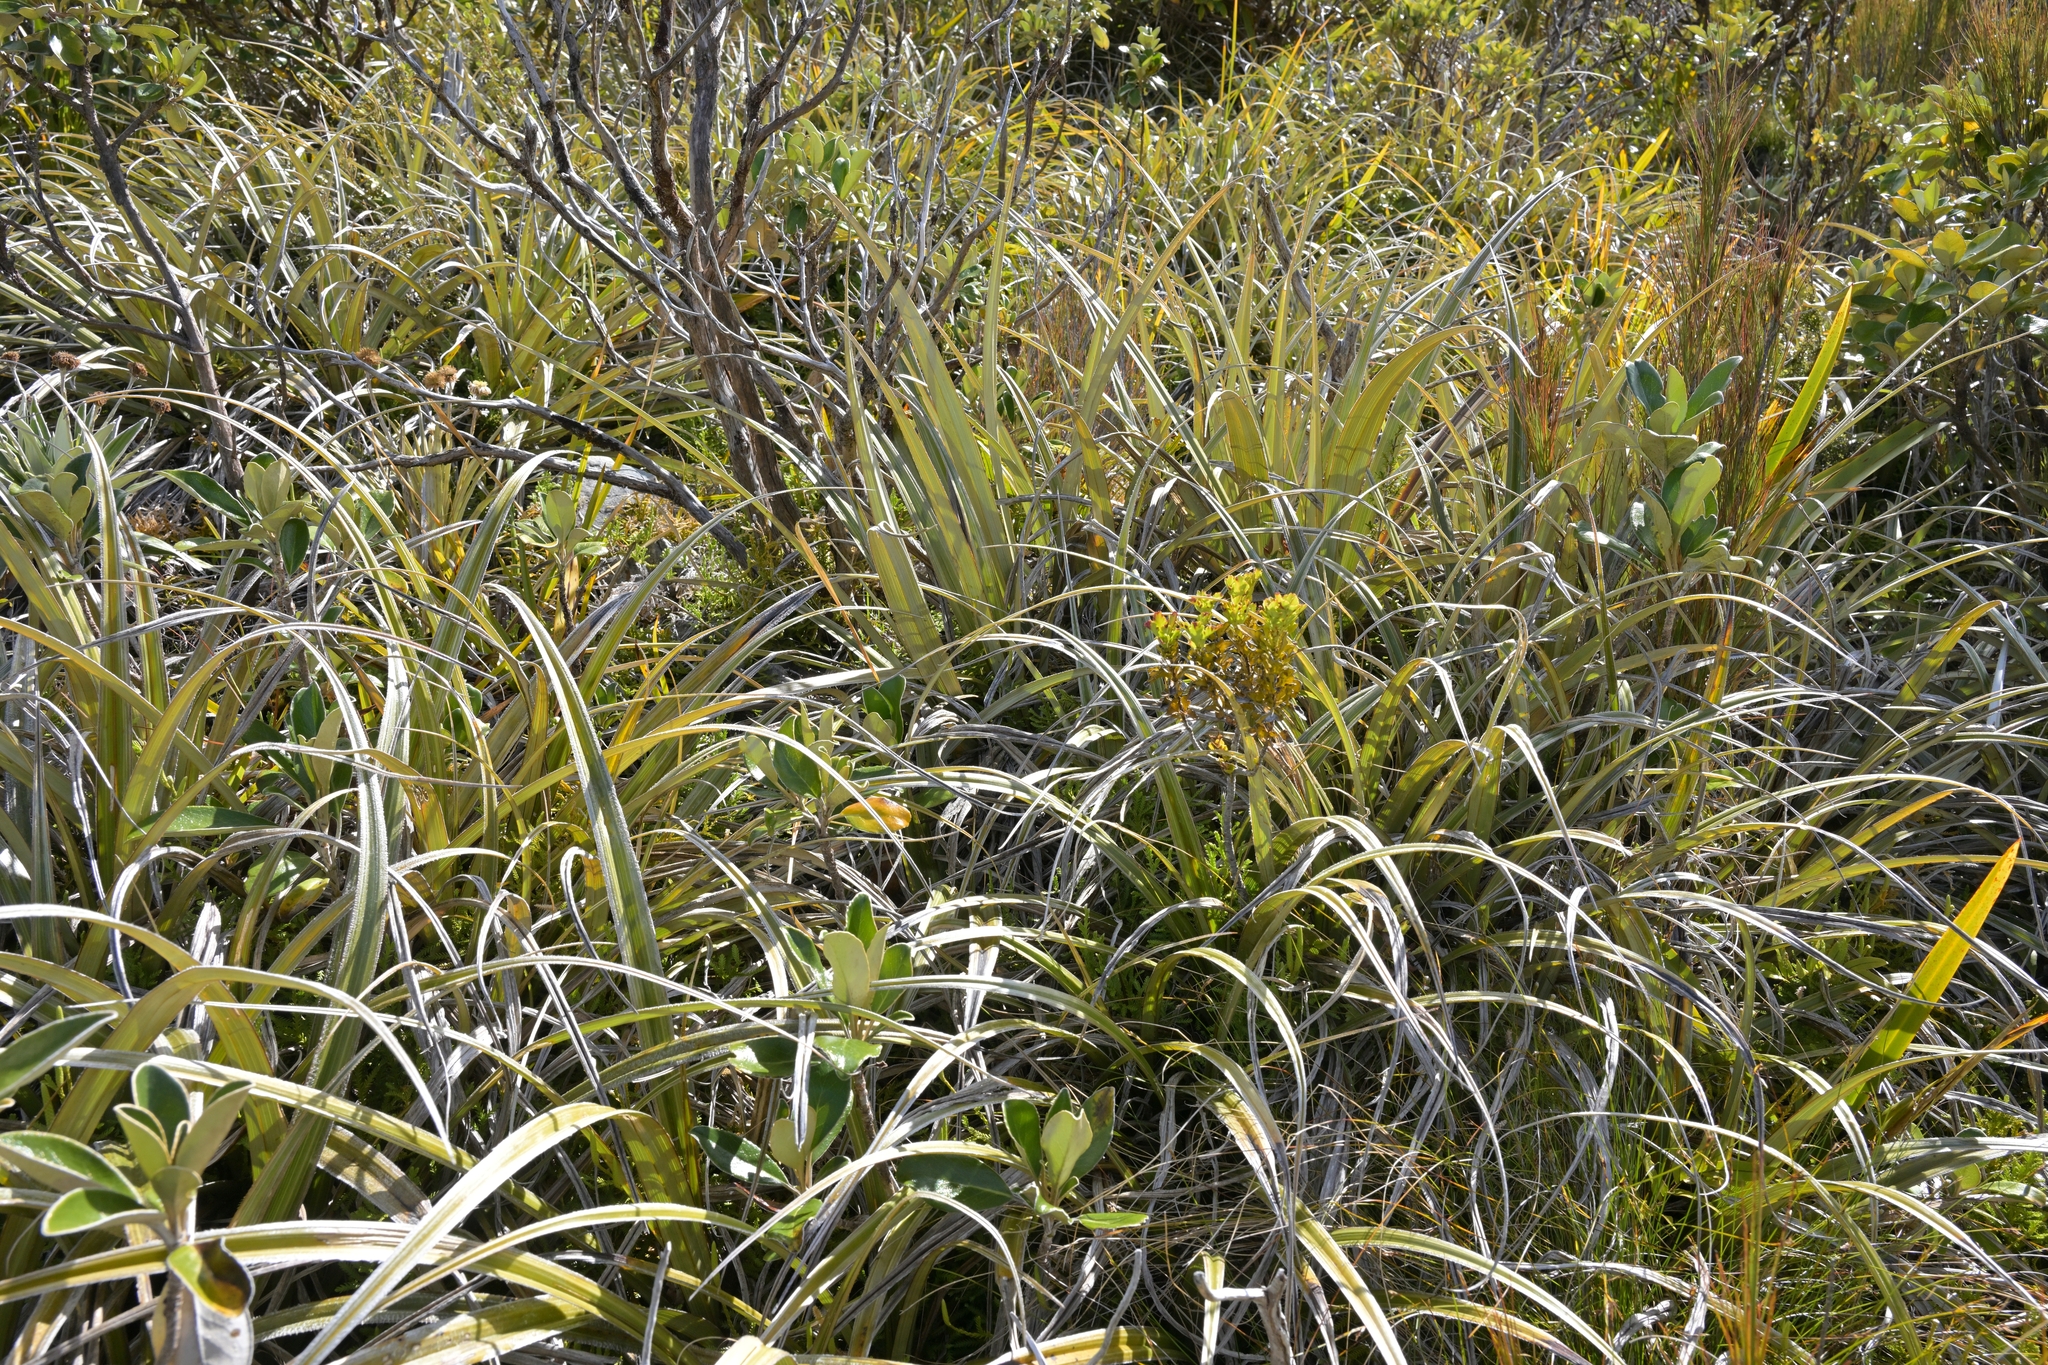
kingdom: Plantae
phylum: Tracheophyta
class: Liliopsida
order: Asparagales
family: Asteliaceae
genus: Astelia
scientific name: Astelia nervosa
